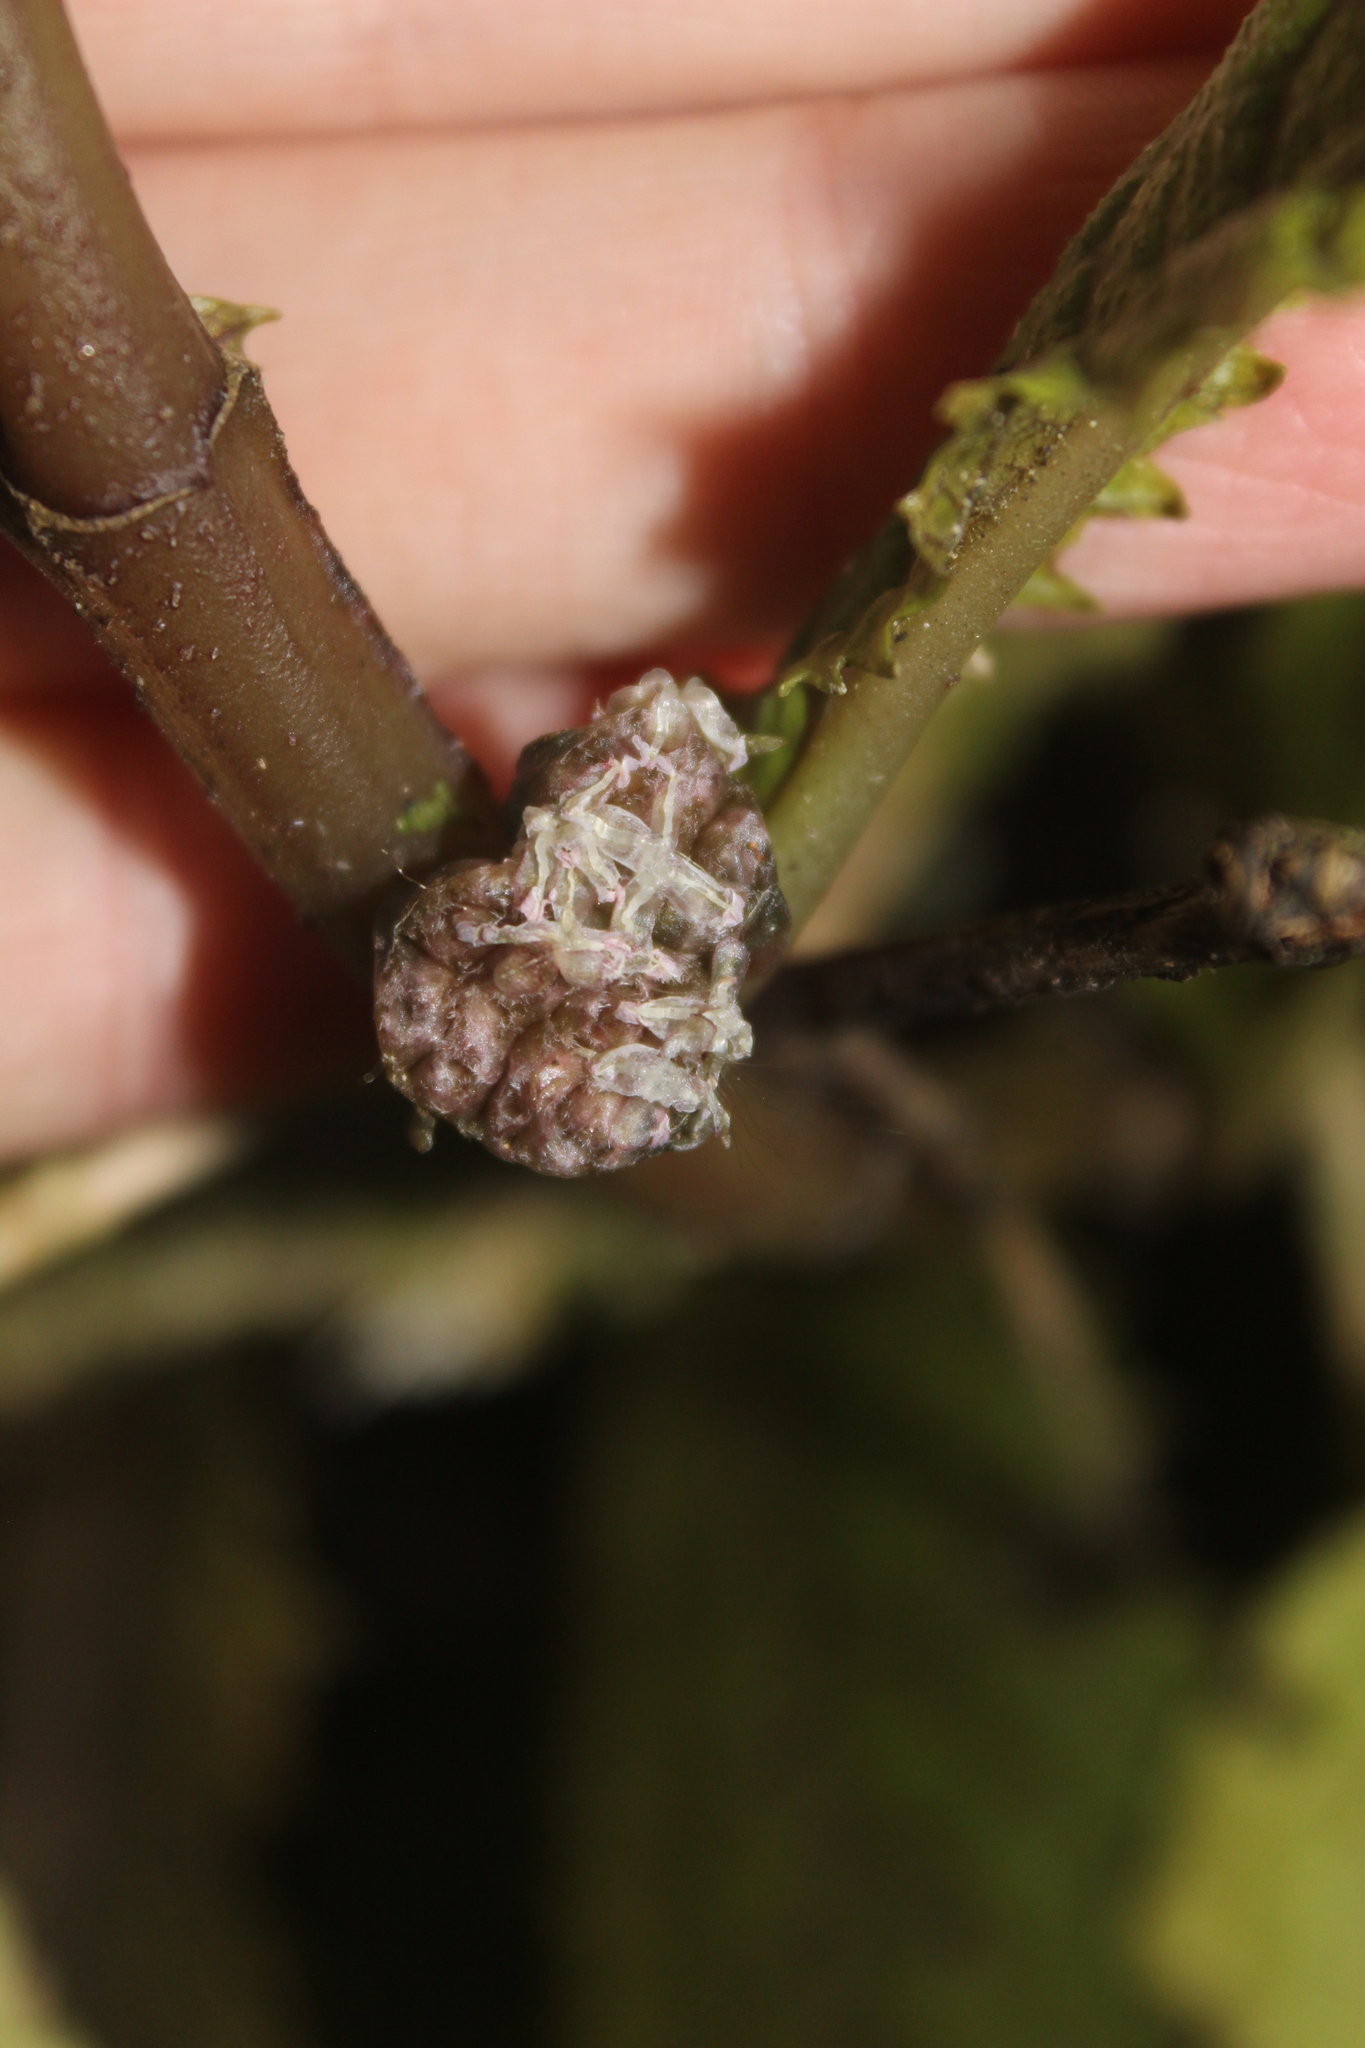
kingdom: Plantae
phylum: Tracheophyta
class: Magnoliopsida
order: Rosales
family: Urticaceae
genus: Elatostema
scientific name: Elatostema rugosum
